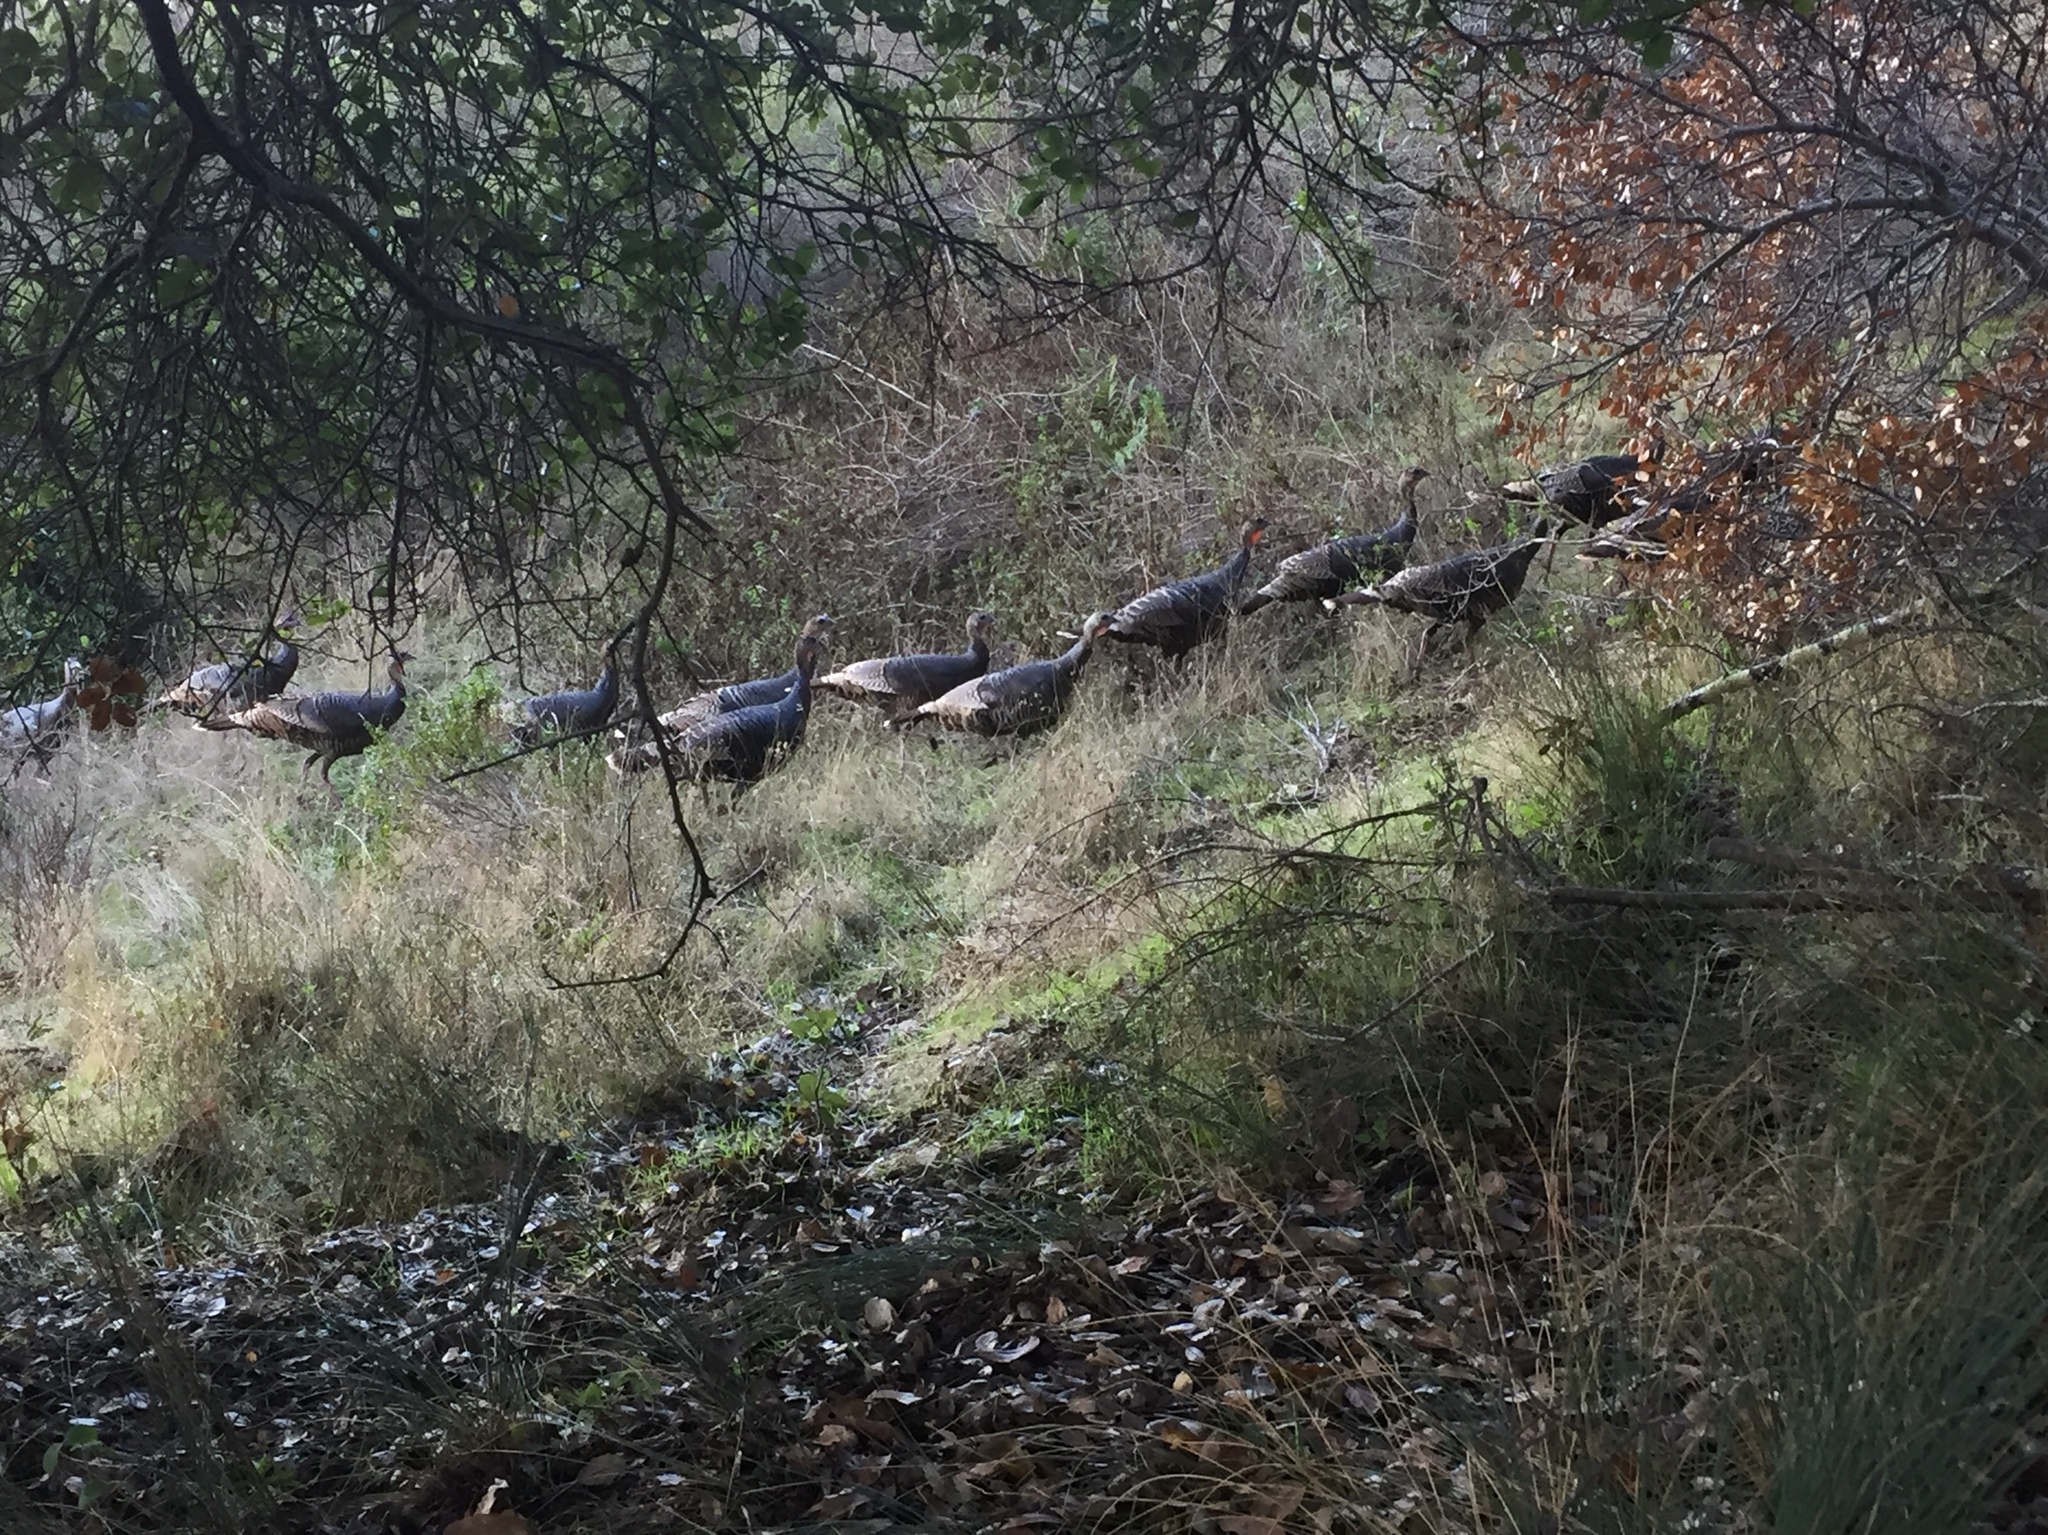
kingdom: Animalia
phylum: Chordata
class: Aves
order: Galliformes
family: Phasianidae
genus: Meleagris
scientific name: Meleagris gallopavo
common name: Wild turkey
